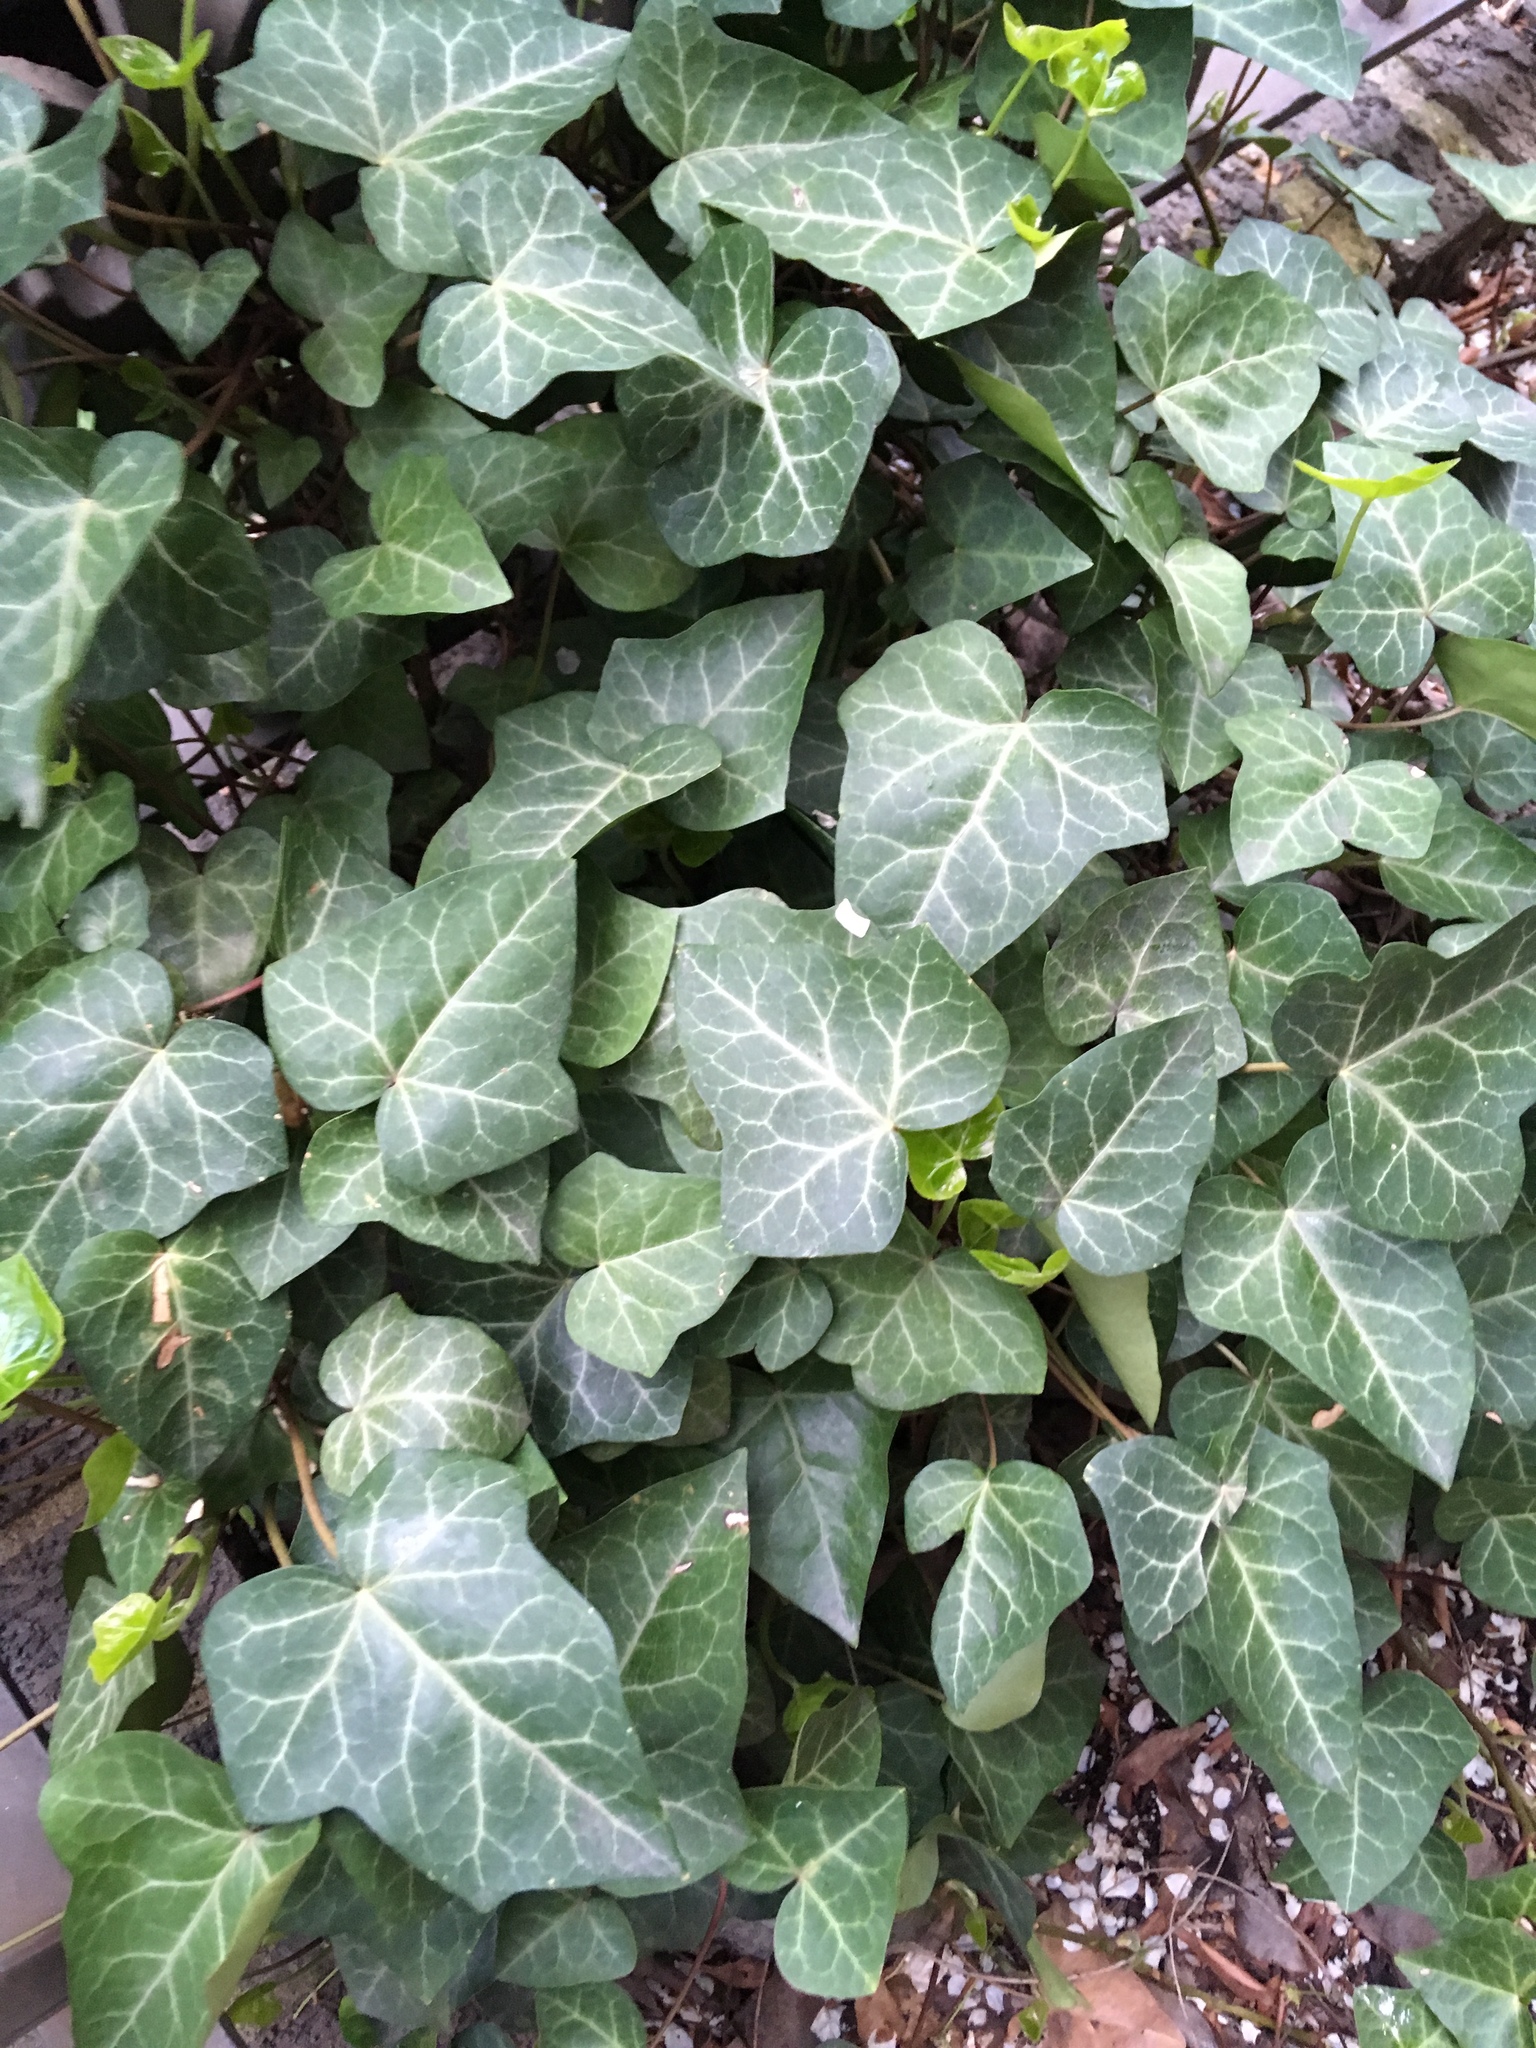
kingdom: Plantae
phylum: Tracheophyta
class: Magnoliopsida
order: Apiales
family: Araliaceae
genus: Hedera
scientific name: Hedera helix
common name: Ivy
